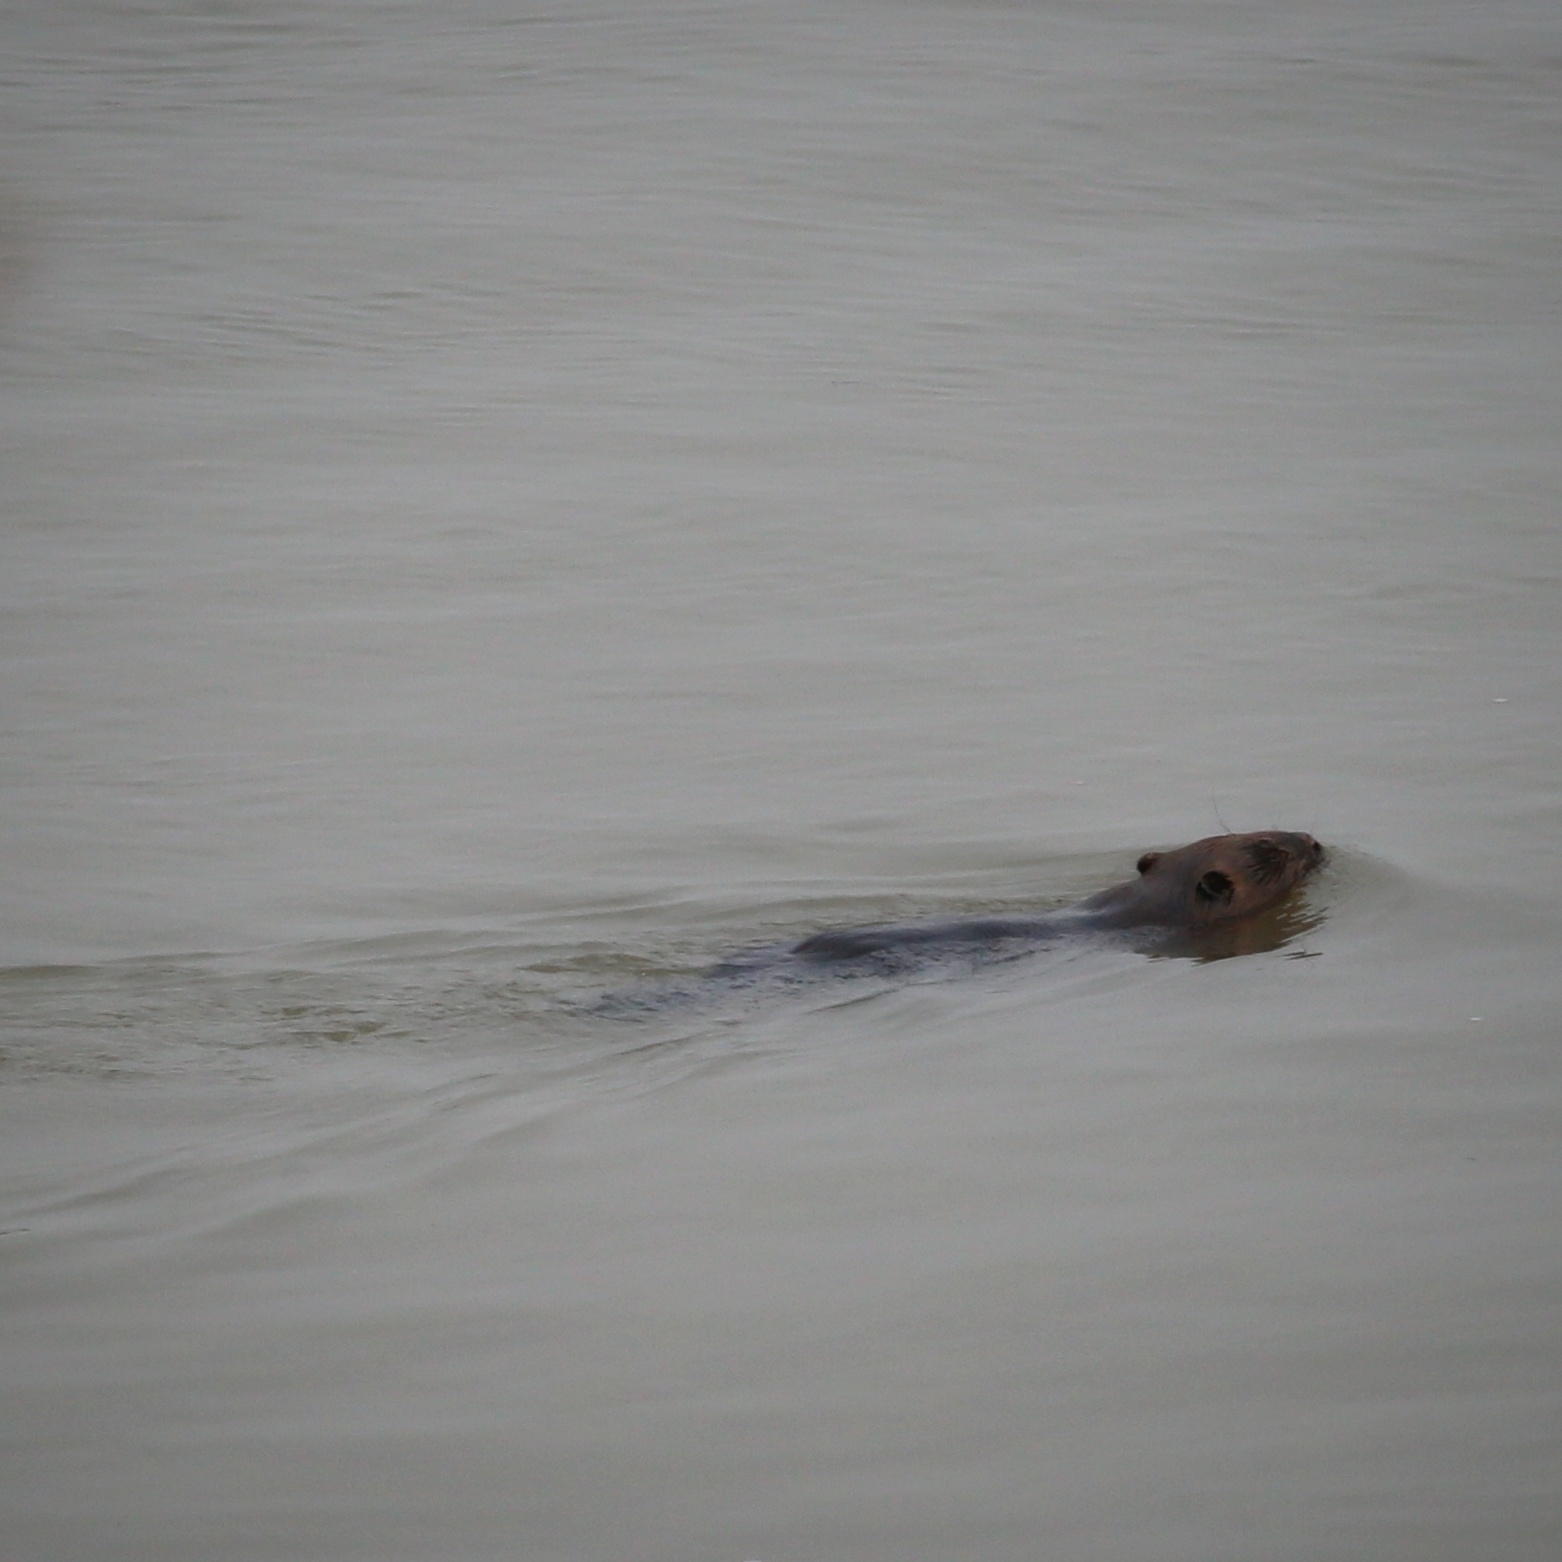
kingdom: Animalia
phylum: Chordata
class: Mammalia
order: Rodentia
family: Castoridae
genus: Castor
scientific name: Castor fiber
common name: Eurasian beaver
